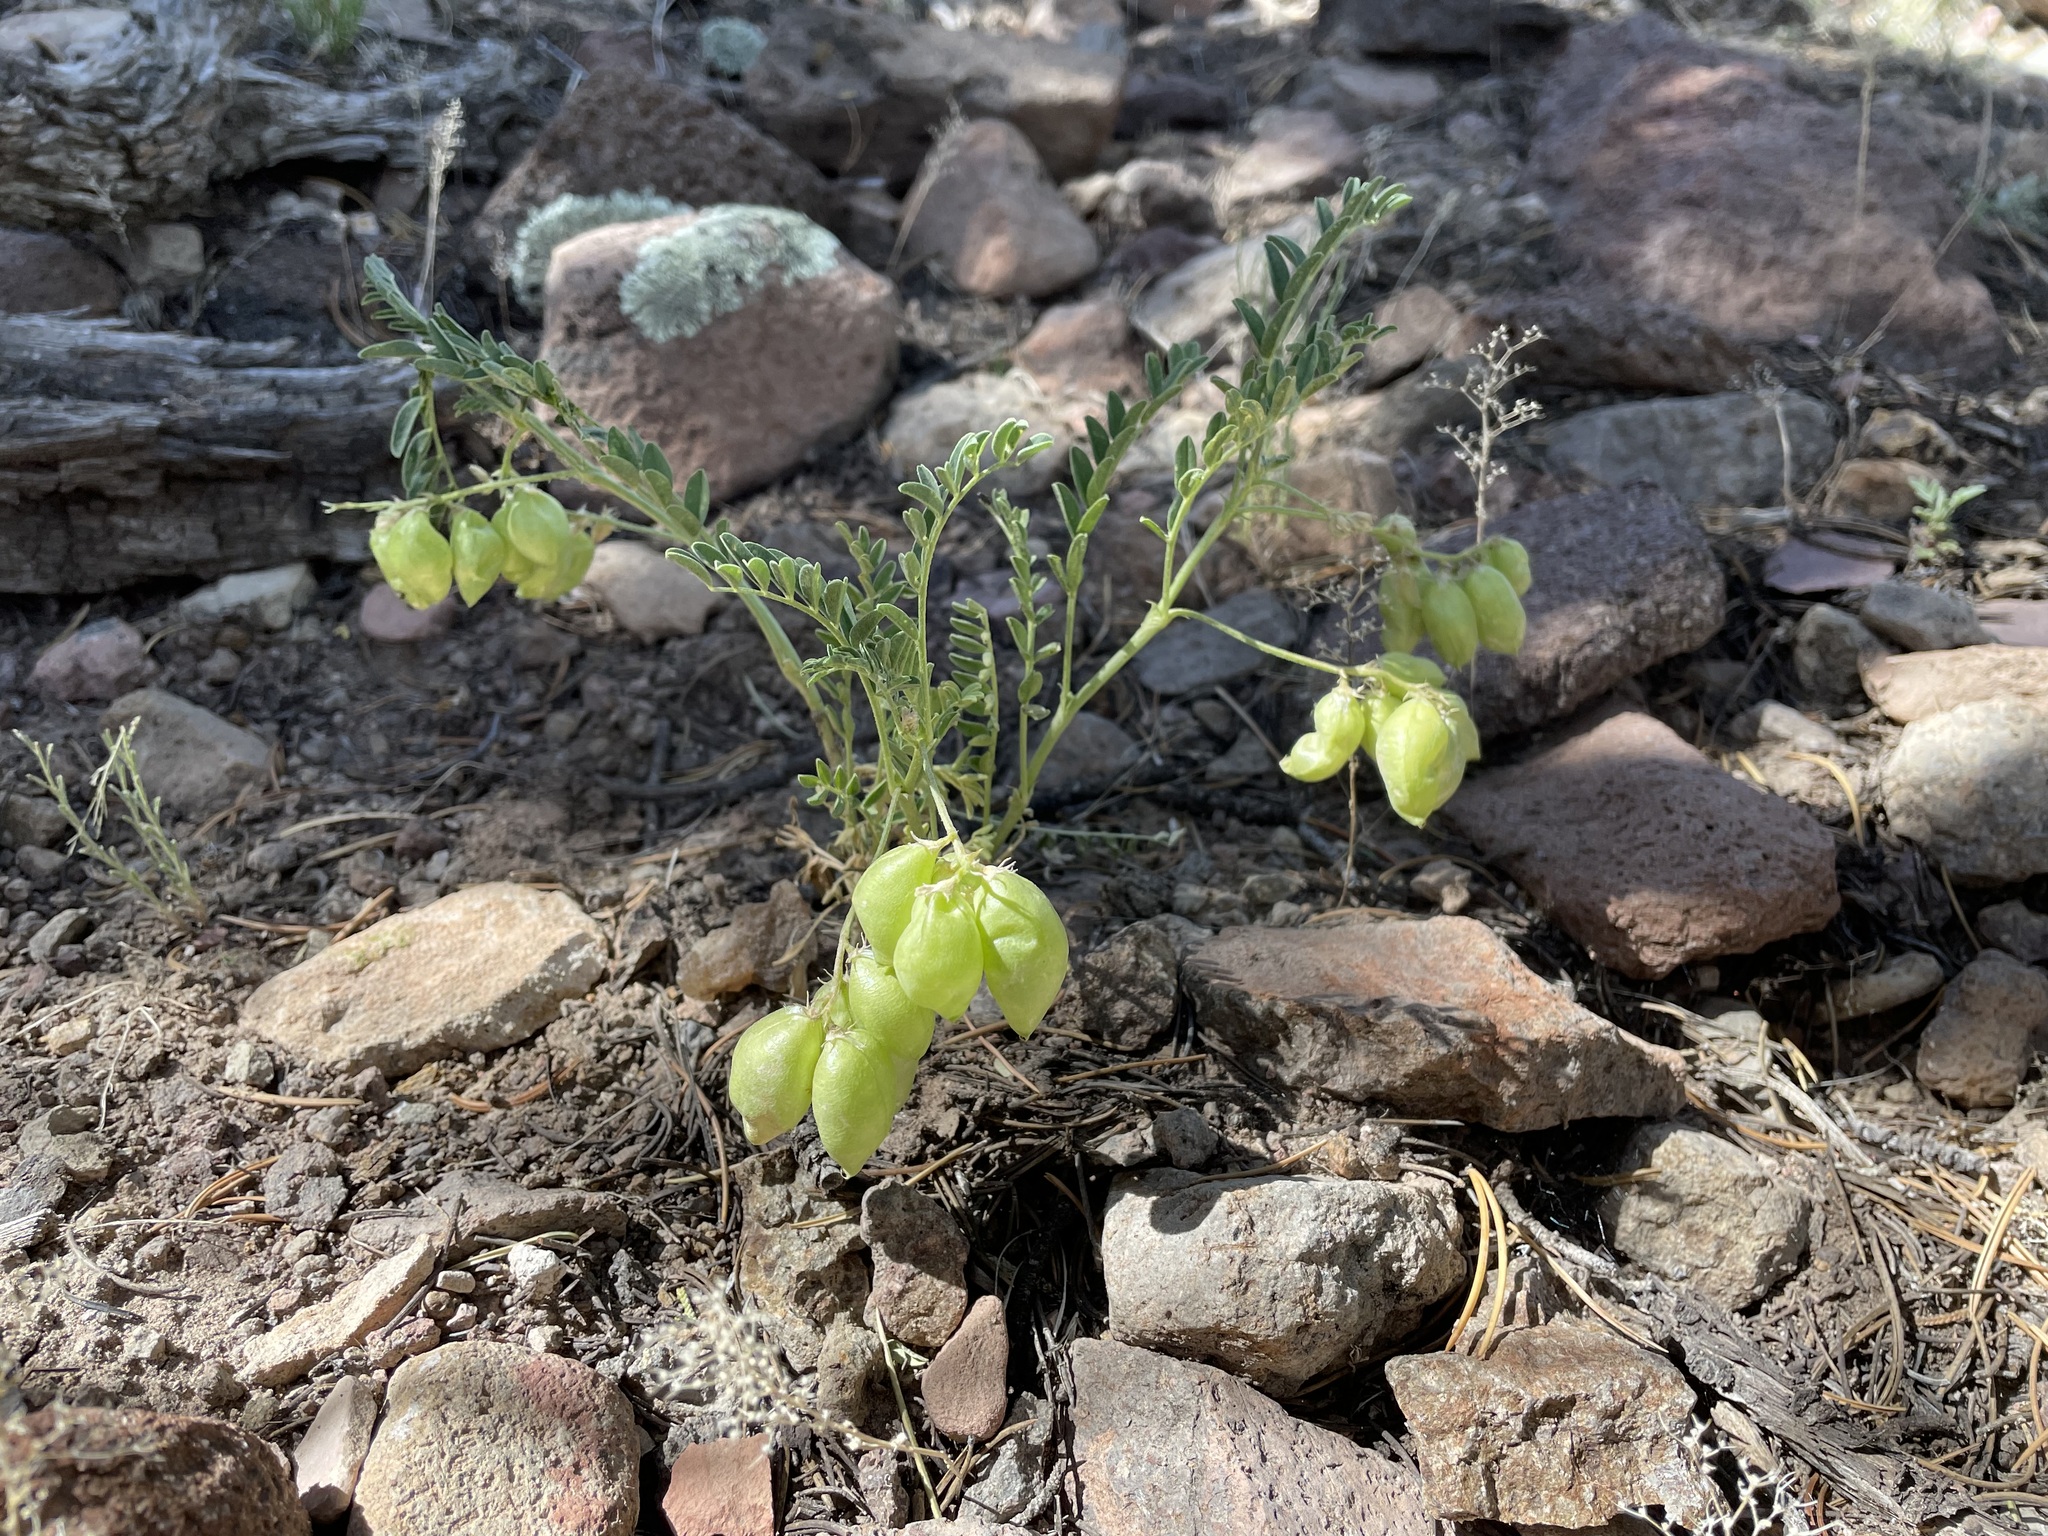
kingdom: Plantae
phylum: Tracheophyta
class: Magnoliopsida
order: Fabales
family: Fabaceae
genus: Astragalus
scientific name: Astragalus lentiginosus
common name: Freckled milkvetch
